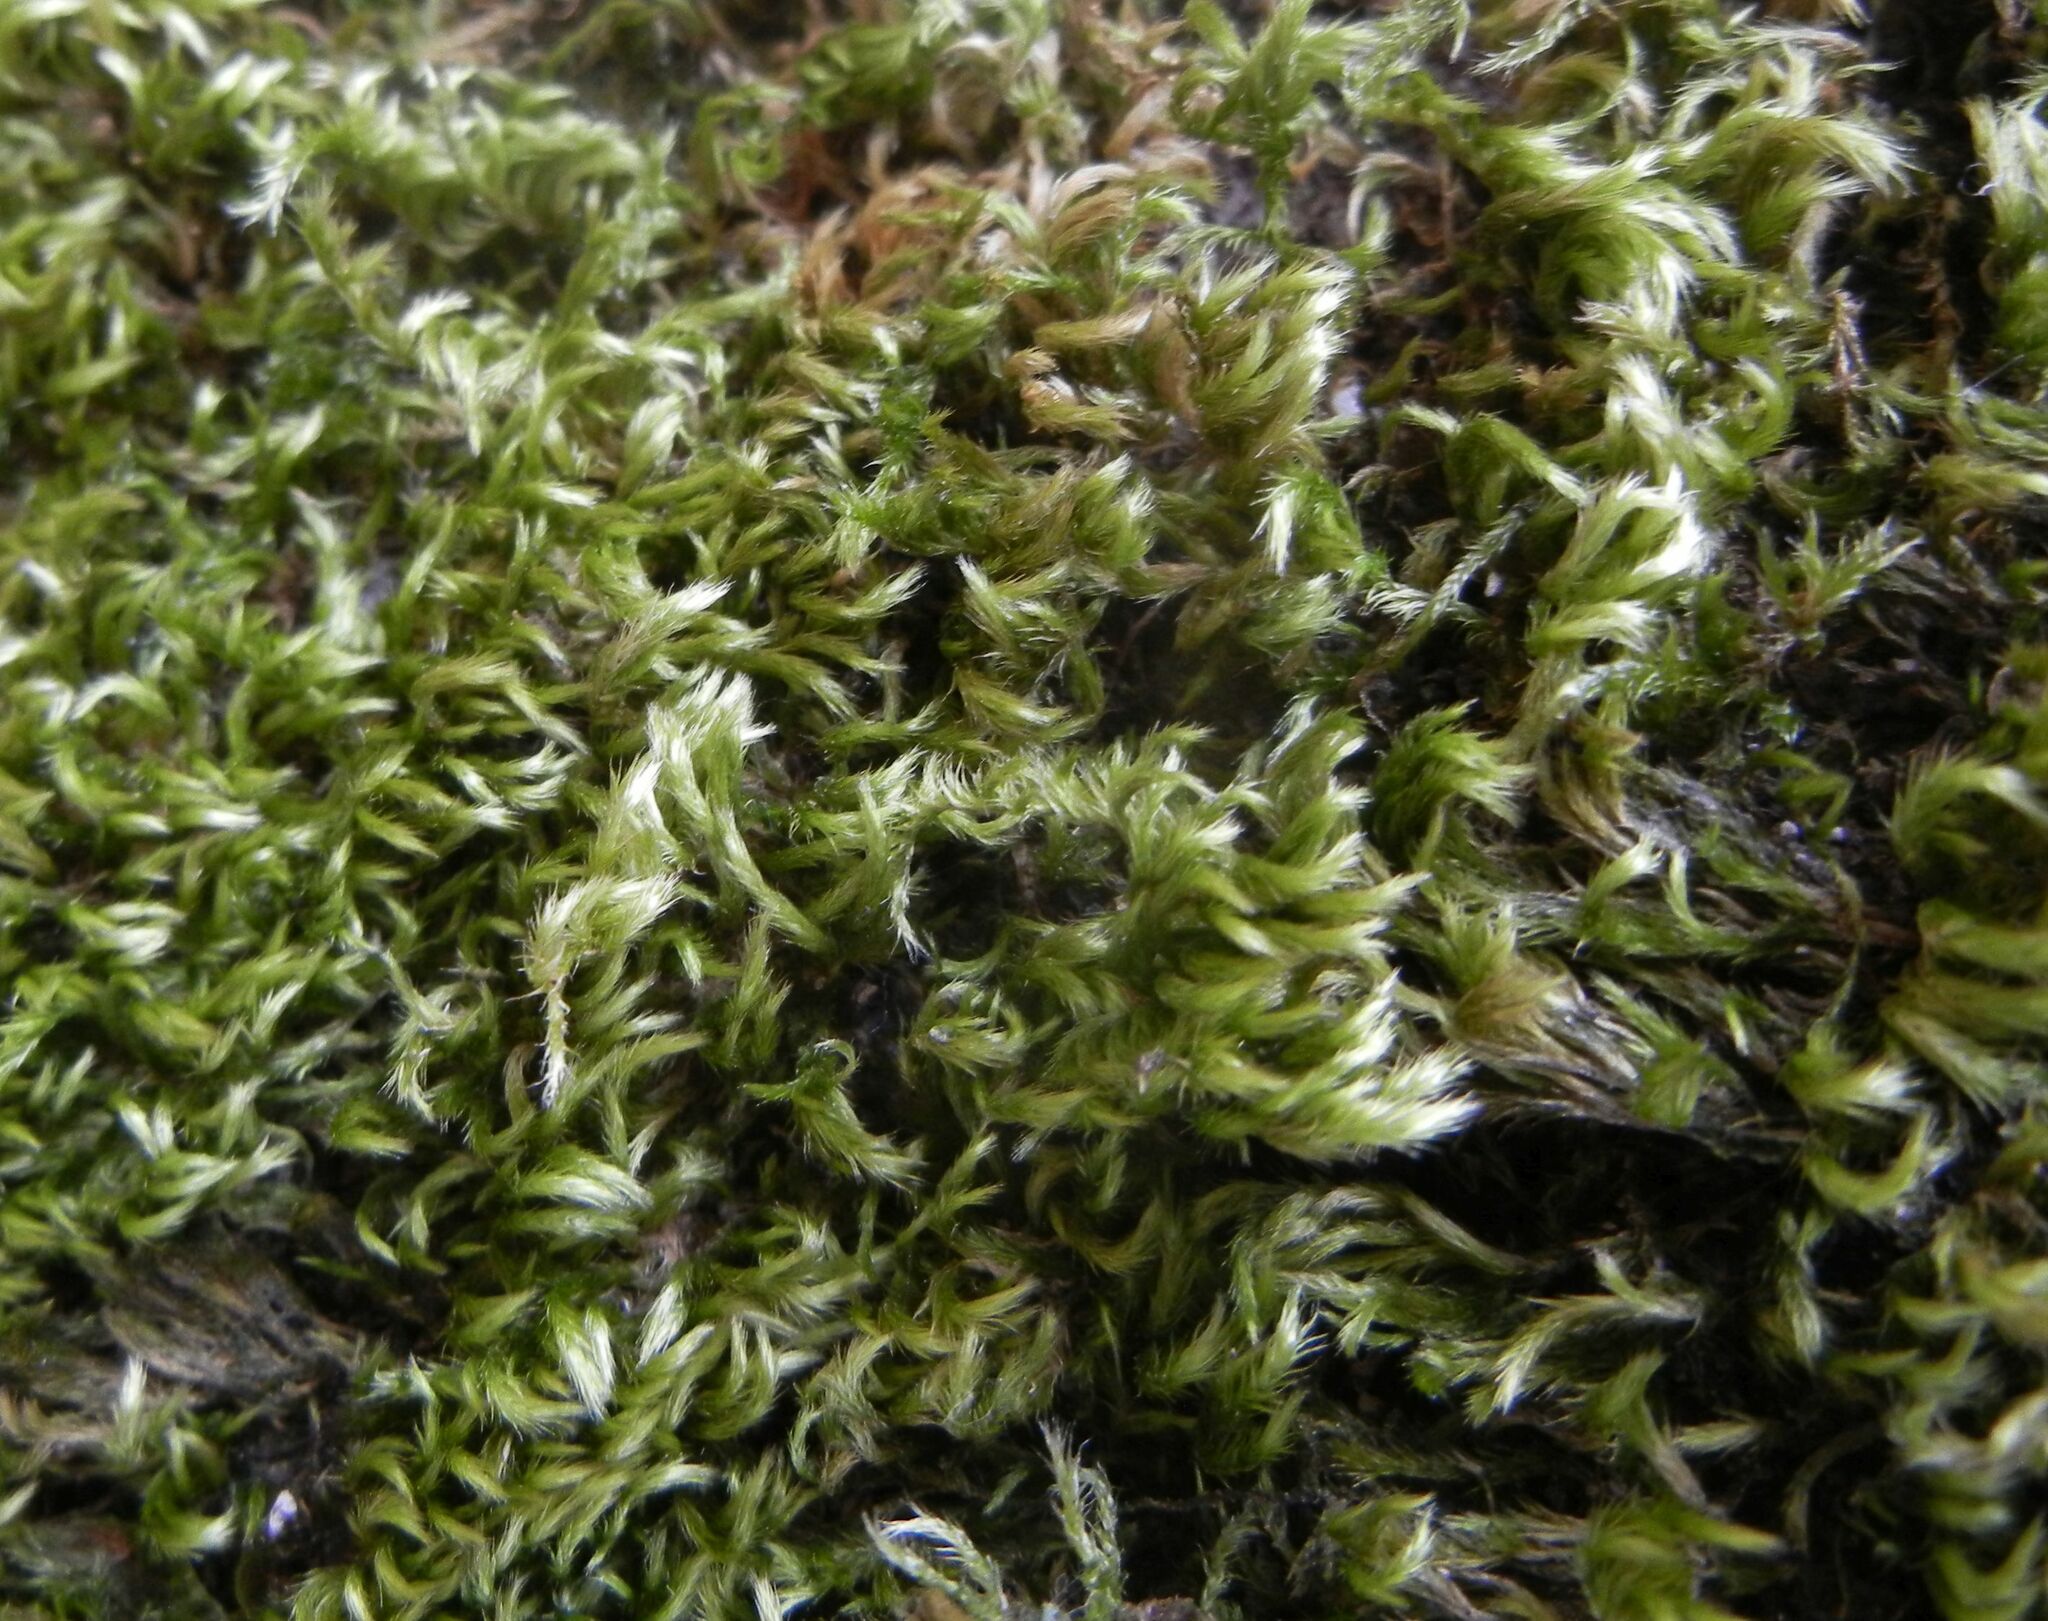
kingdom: Plantae
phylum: Bryophyta
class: Bryopsida
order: Hypnales
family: Brachytheciaceae
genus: Homalothecium
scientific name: Homalothecium sericeum
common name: Silky wall feather-moss
